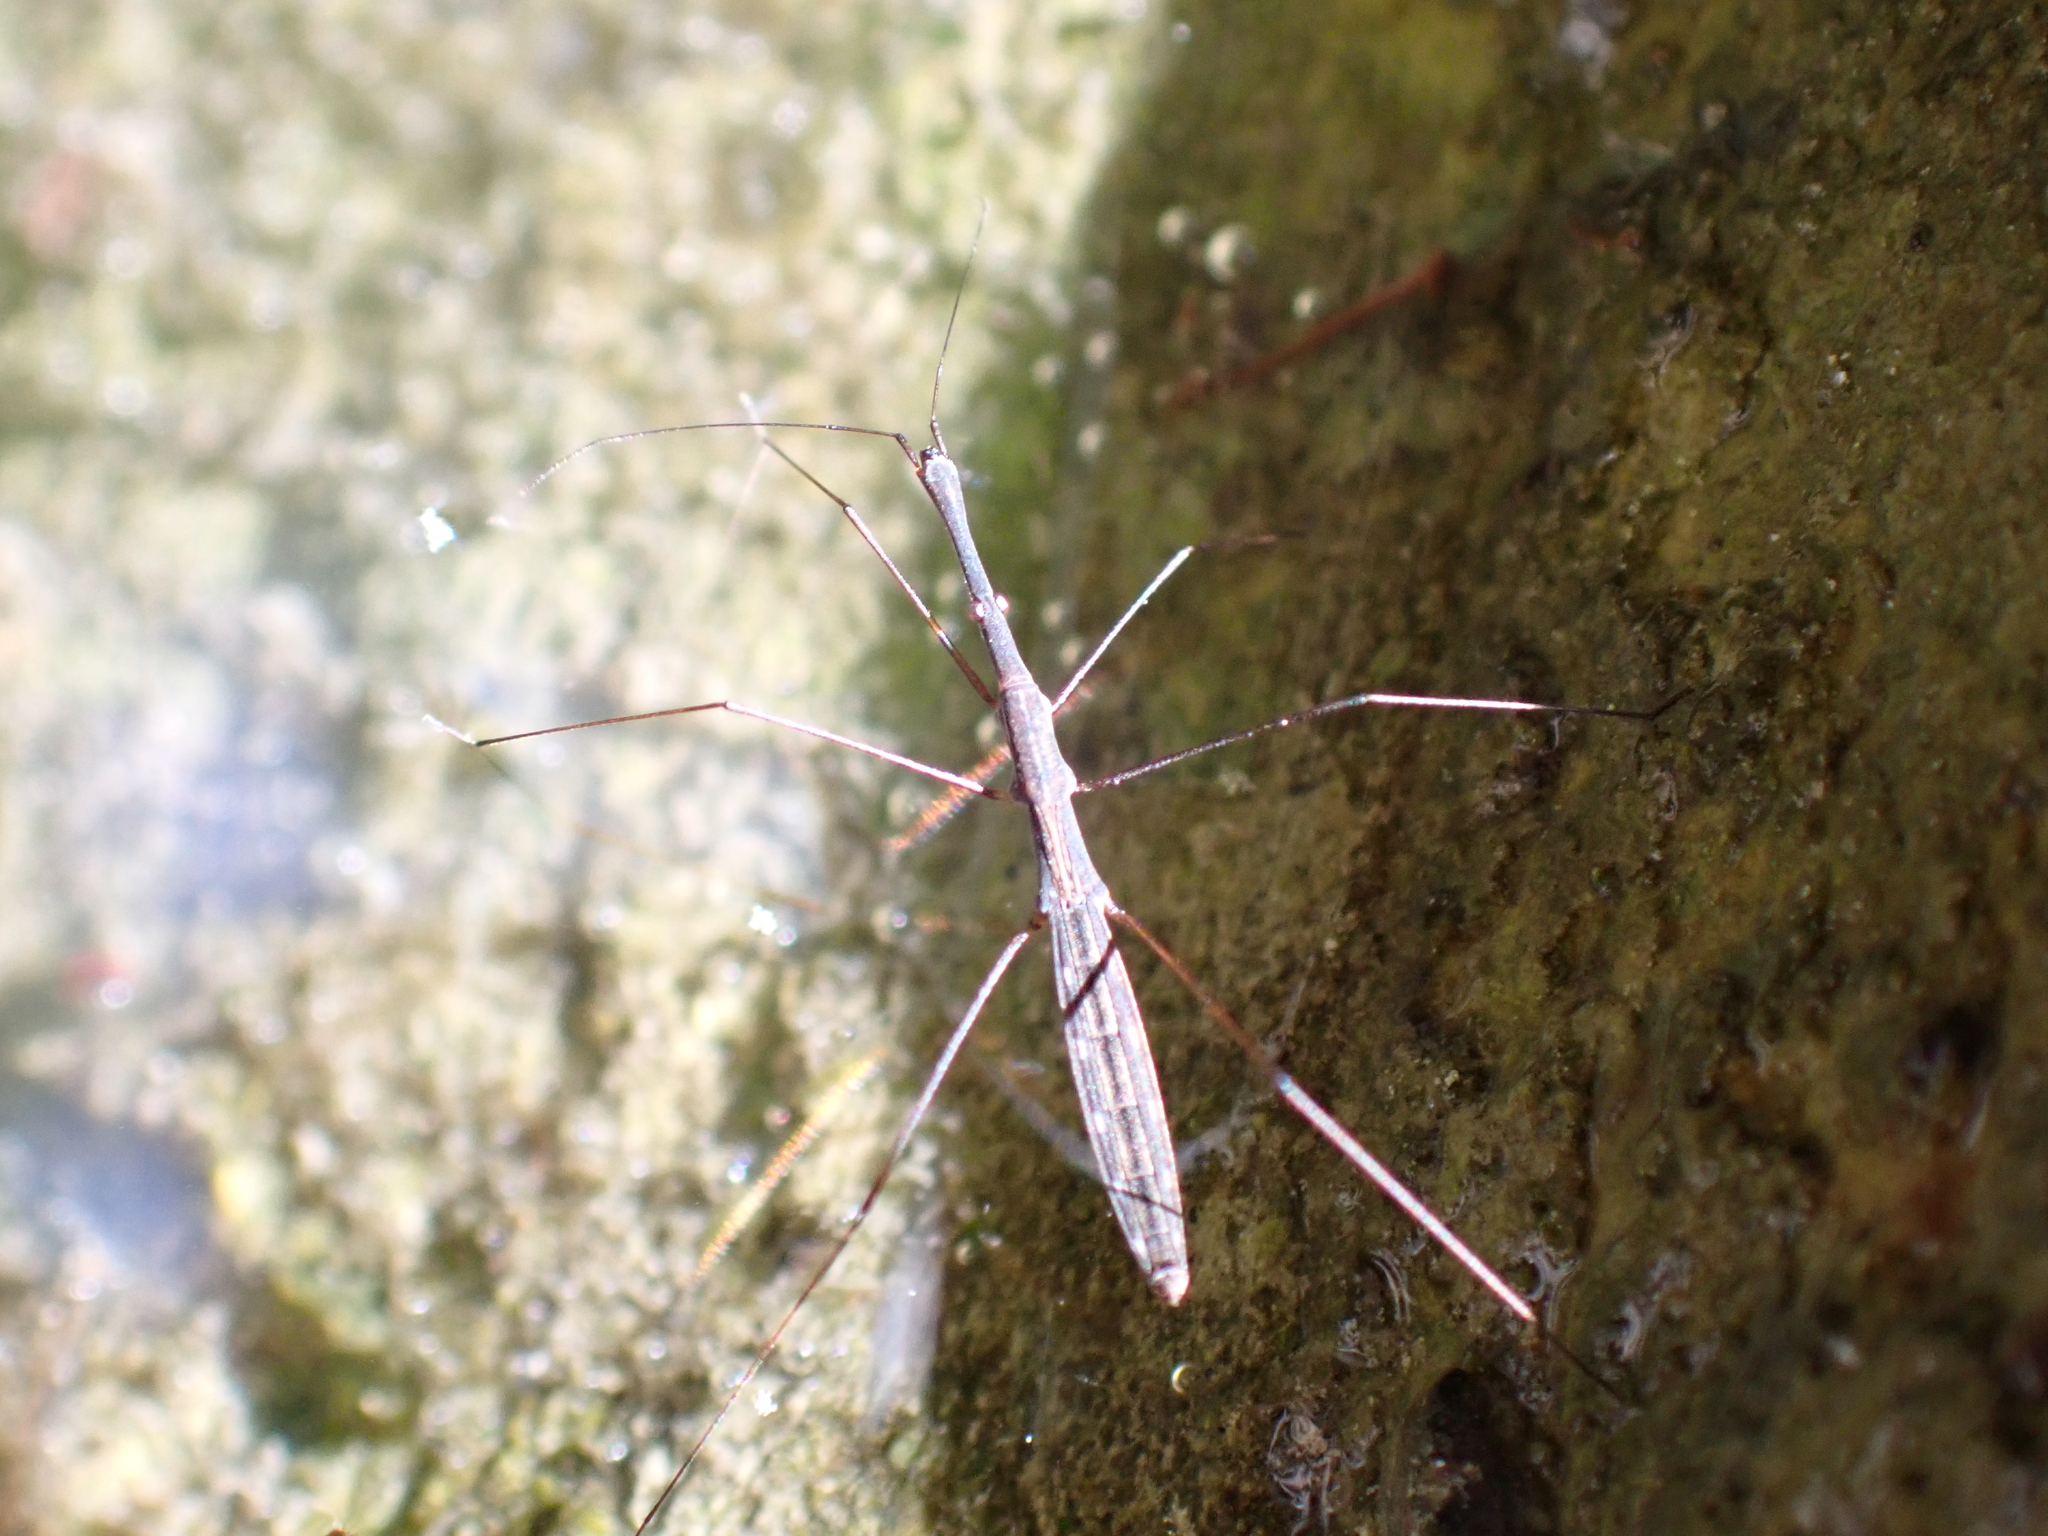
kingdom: Animalia
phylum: Arthropoda
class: Insecta
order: Hemiptera
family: Hydrometridae
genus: Hydrometra
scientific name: Hydrometra stagnorum
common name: Water measurer
